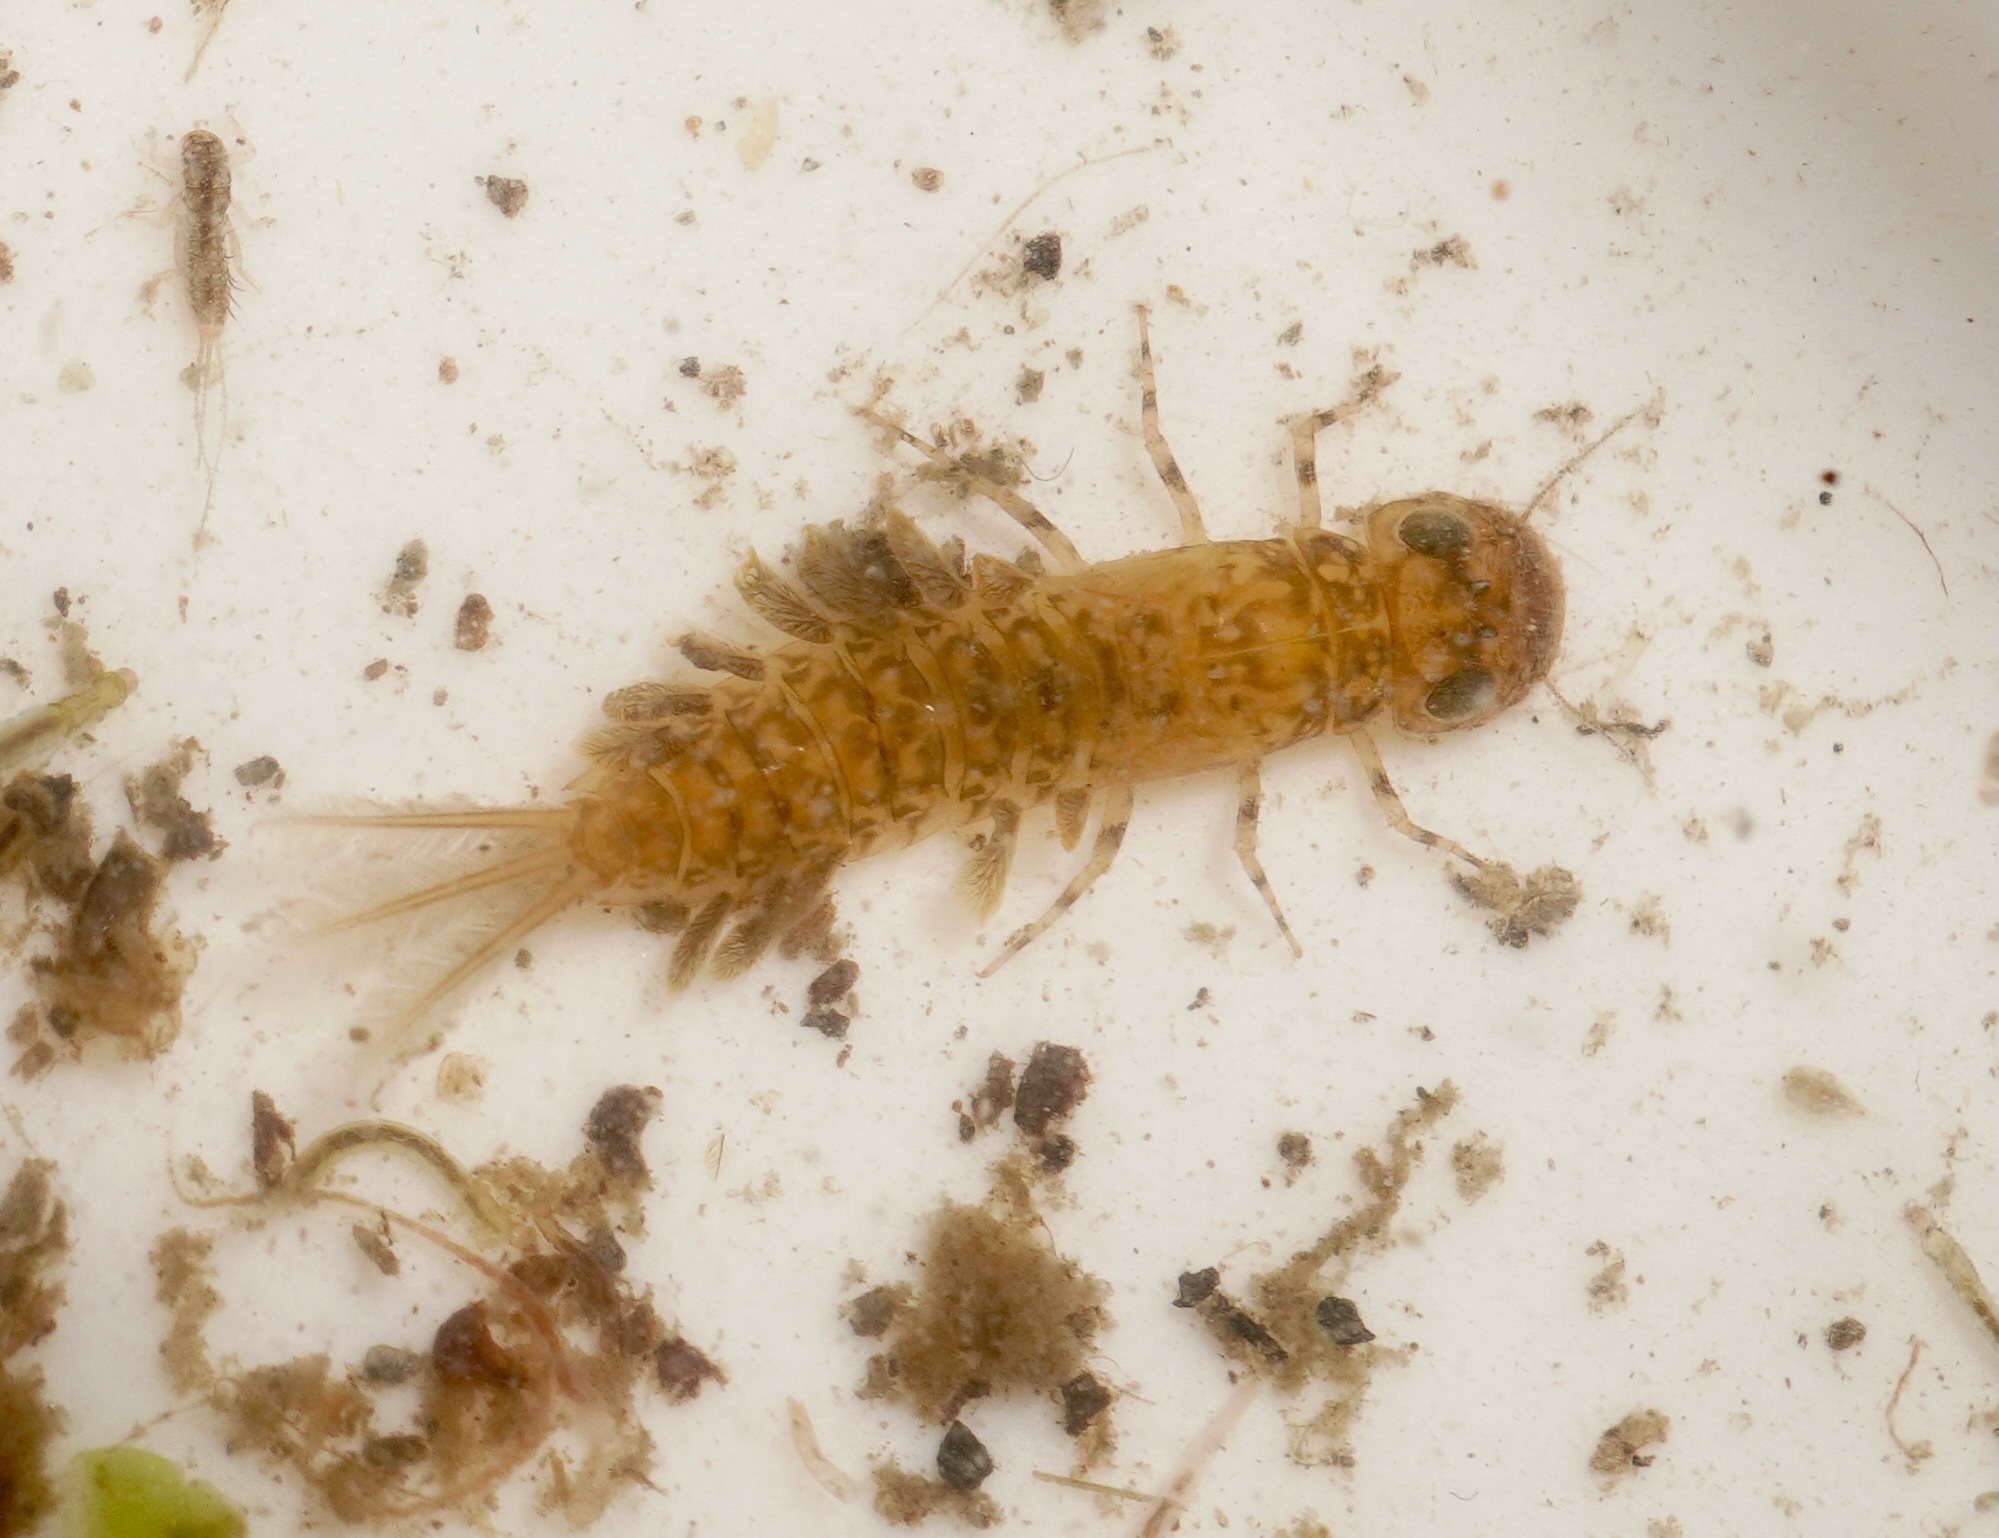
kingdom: Animalia
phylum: Arthropoda
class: Insecta
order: Ephemeroptera
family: Ameletopsidae
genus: Ameletopsis
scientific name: Ameletopsis perscitus
